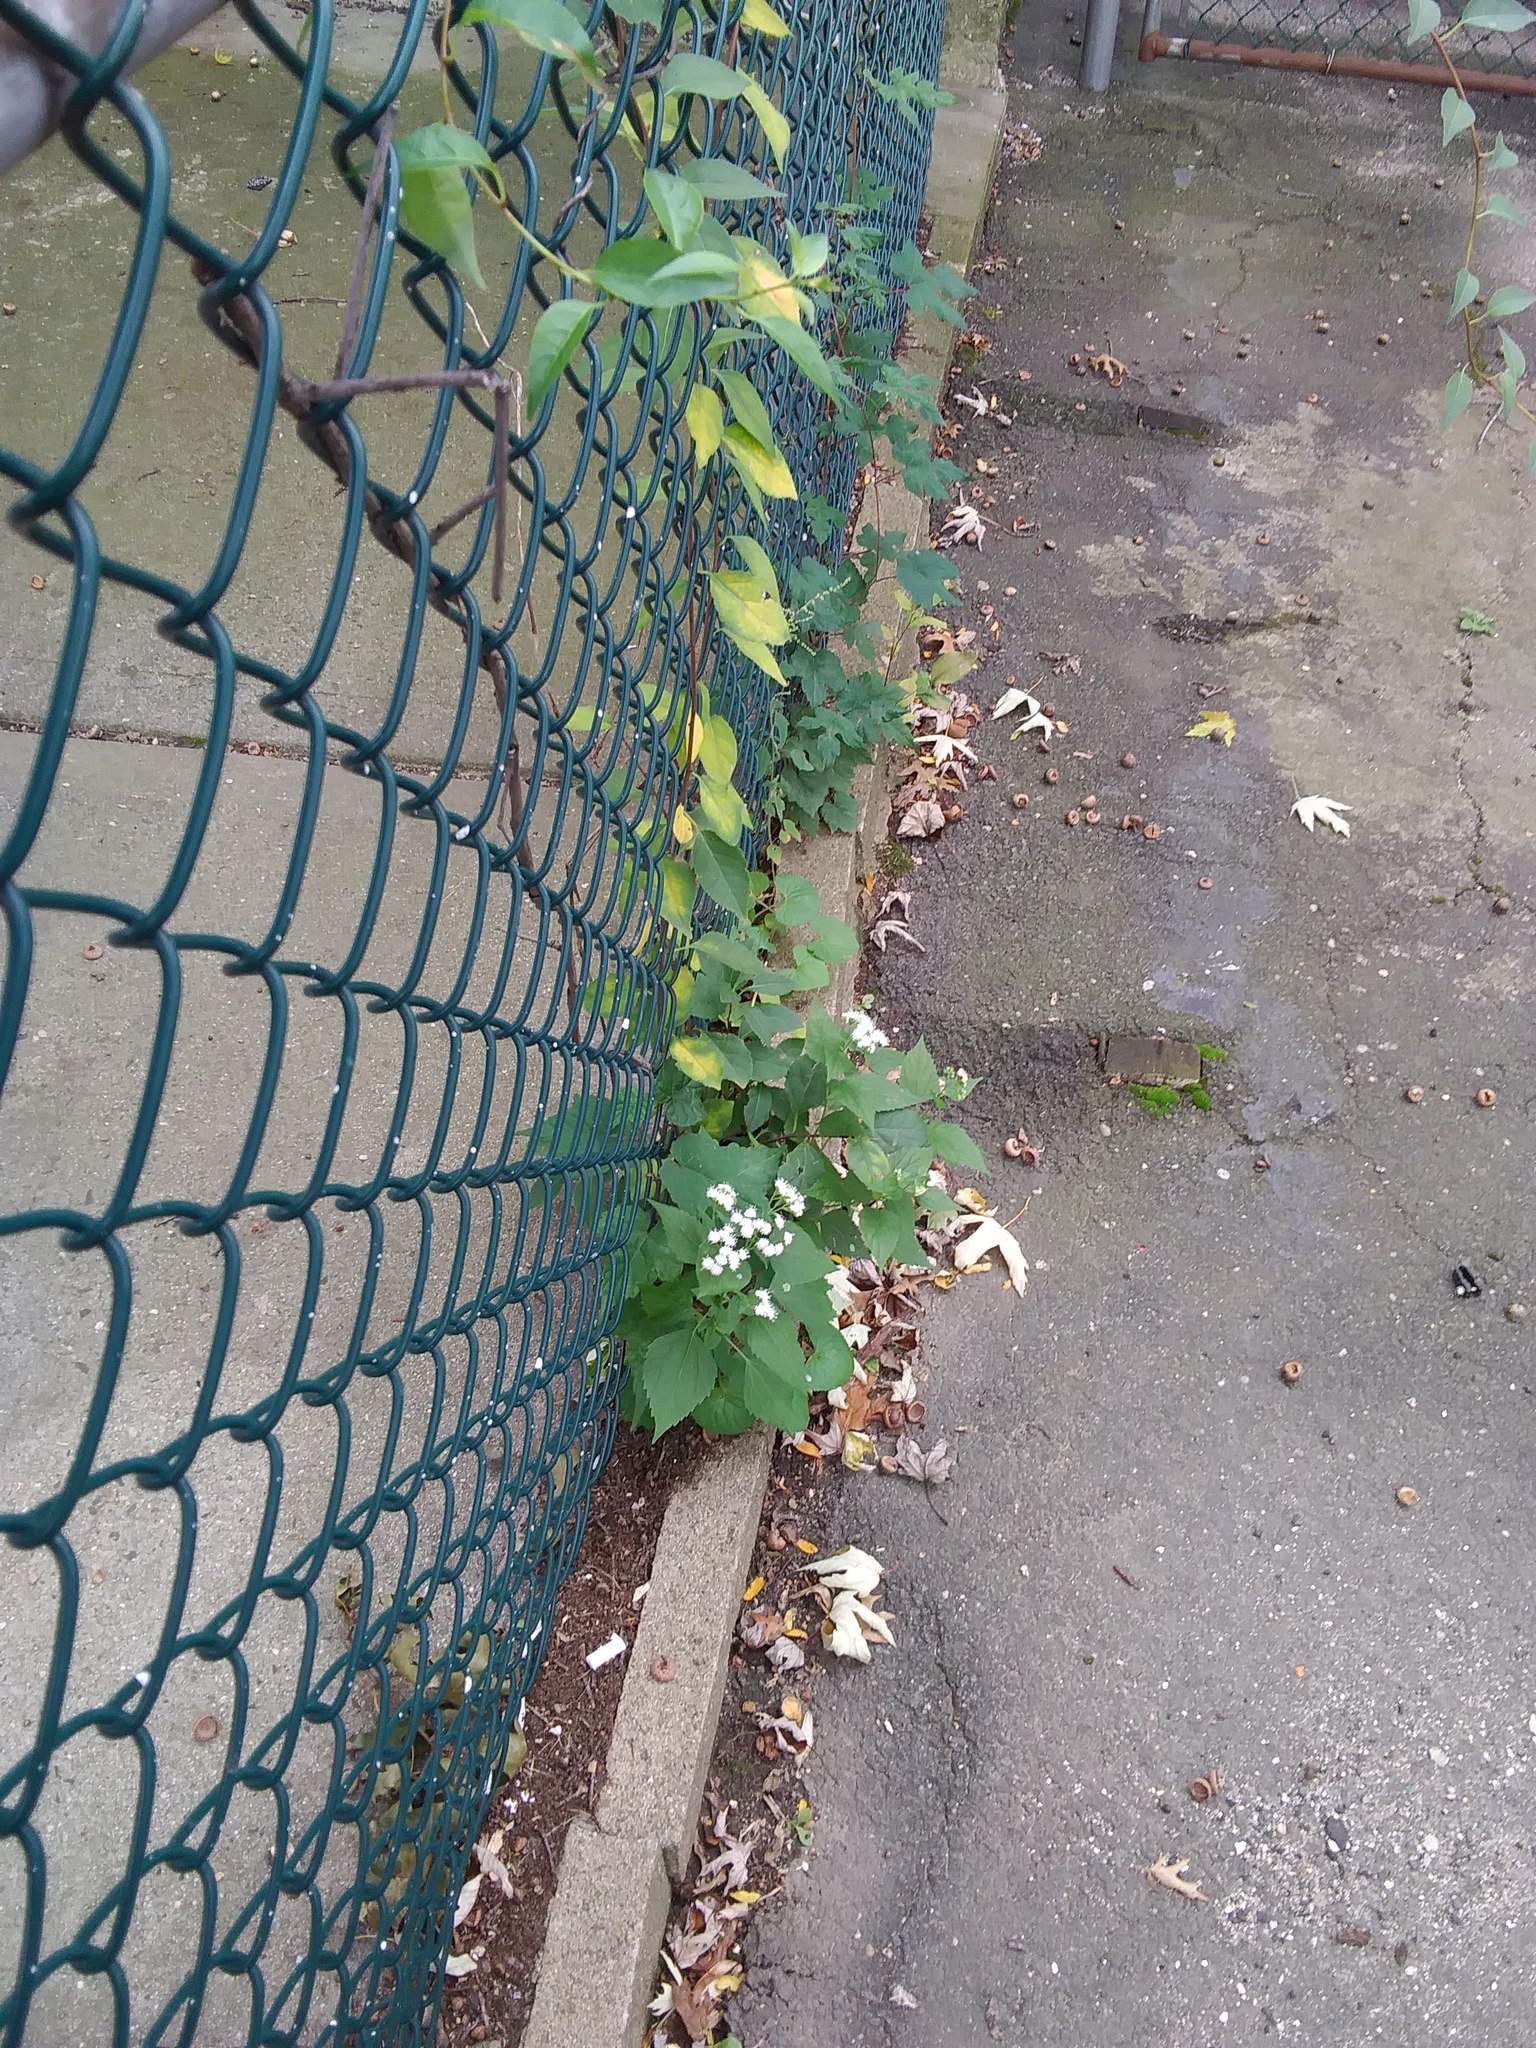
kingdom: Plantae
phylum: Tracheophyta
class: Magnoliopsida
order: Asterales
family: Asteraceae
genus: Ageratina
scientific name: Ageratina altissima
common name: White snakeroot
